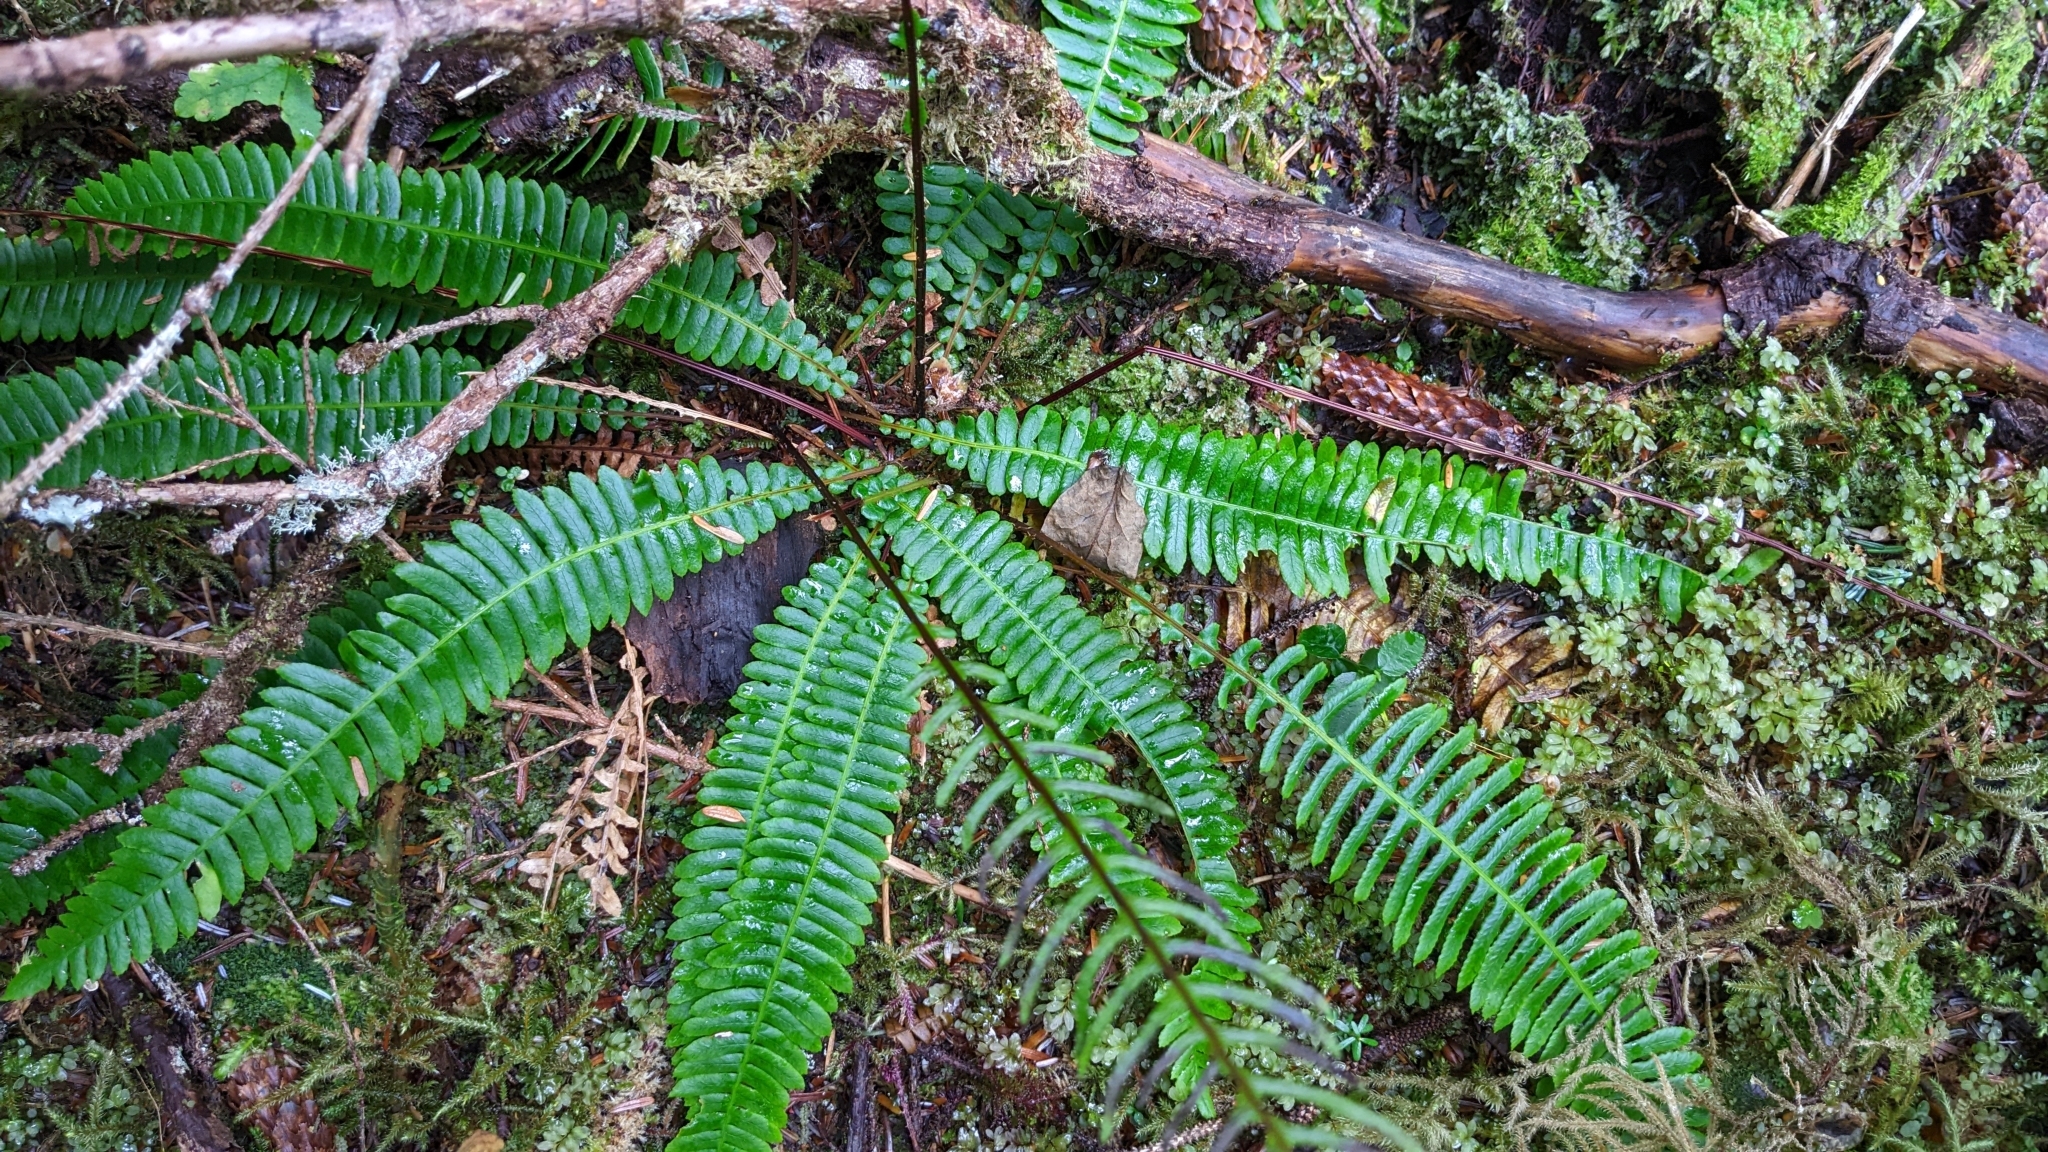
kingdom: Plantae
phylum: Tracheophyta
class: Polypodiopsida
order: Polypodiales
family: Blechnaceae
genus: Struthiopteris
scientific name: Struthiopteris spicant
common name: Deer fern
